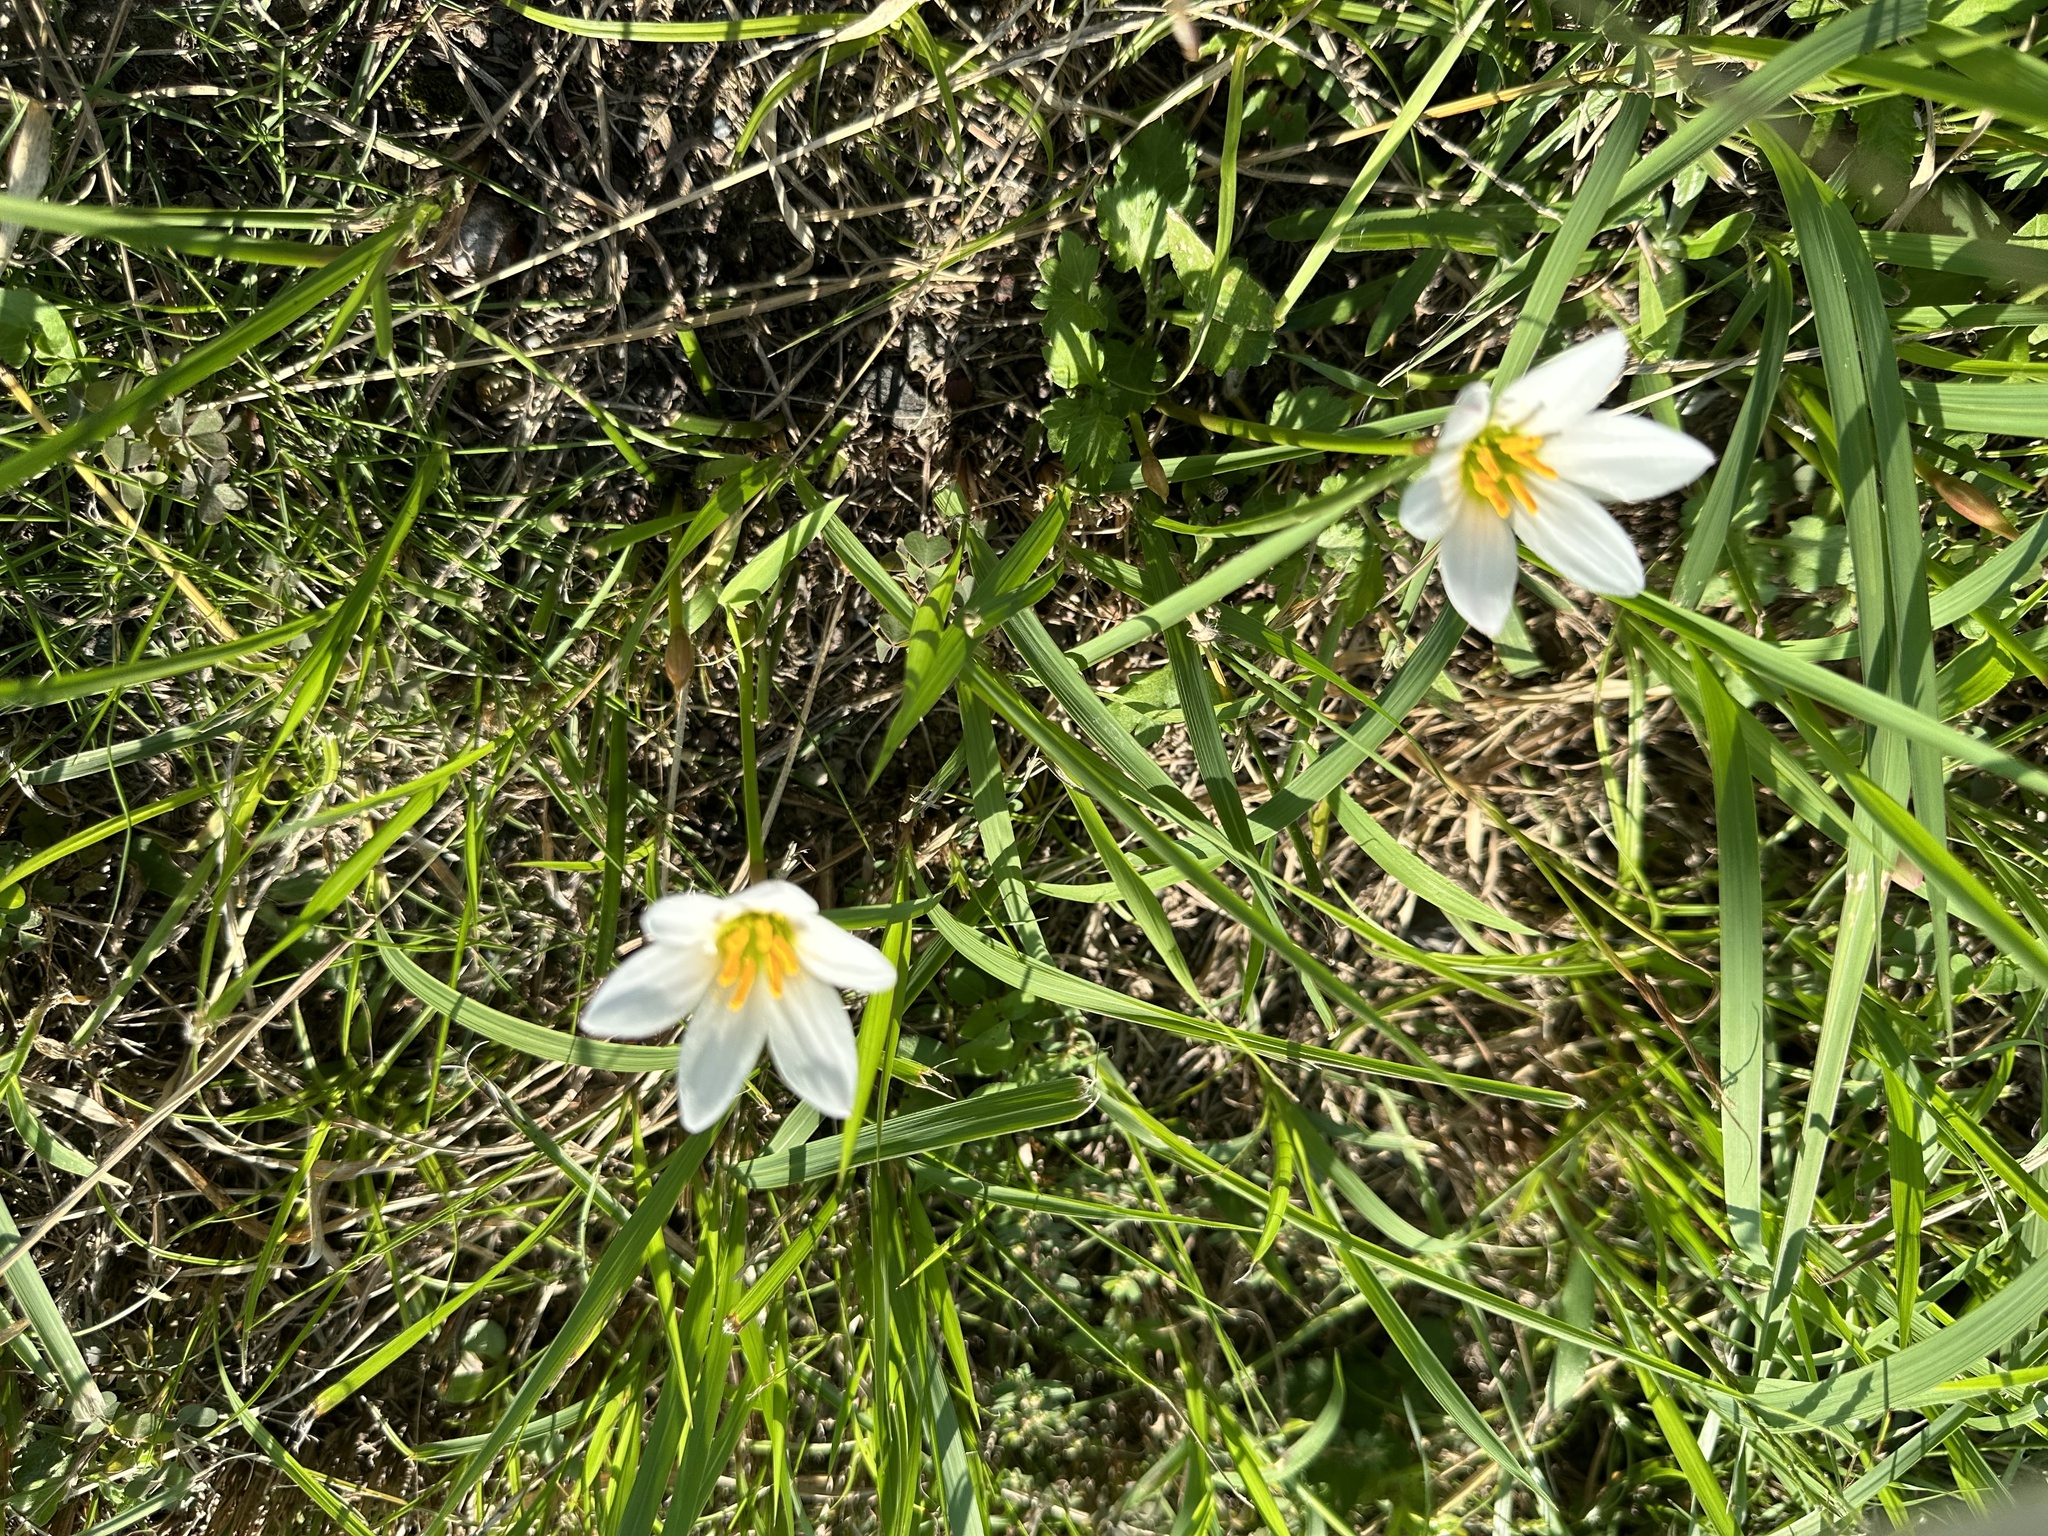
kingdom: Plantae
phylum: Tracheophyta
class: Liliopsida
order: Asparagales
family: Amaryllidaceae
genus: Zephyranthes
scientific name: Zephyranthes candida
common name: Autumn zephyrlily
